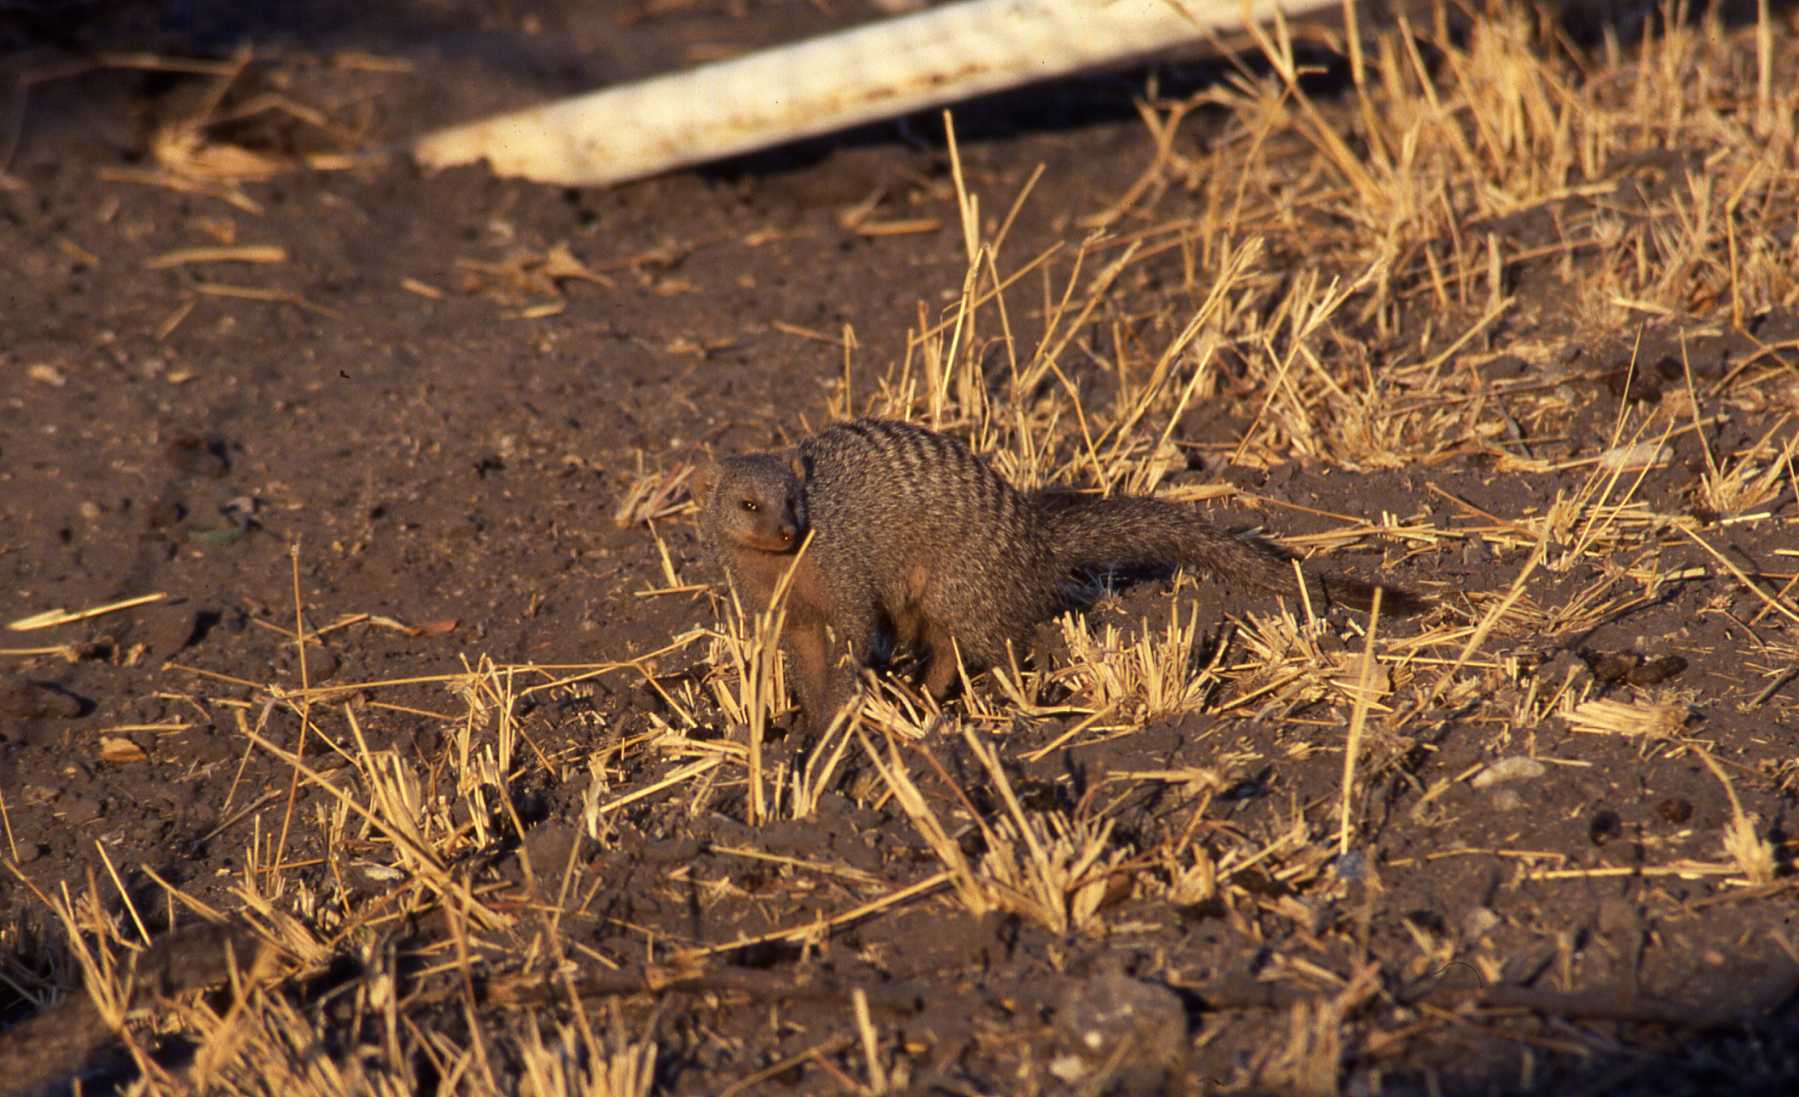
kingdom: Animalia
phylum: Chordata
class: Mammalia
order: Carnivora
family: Herpestidae
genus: Mungos
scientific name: Mungos mungo
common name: Banded mongoose
